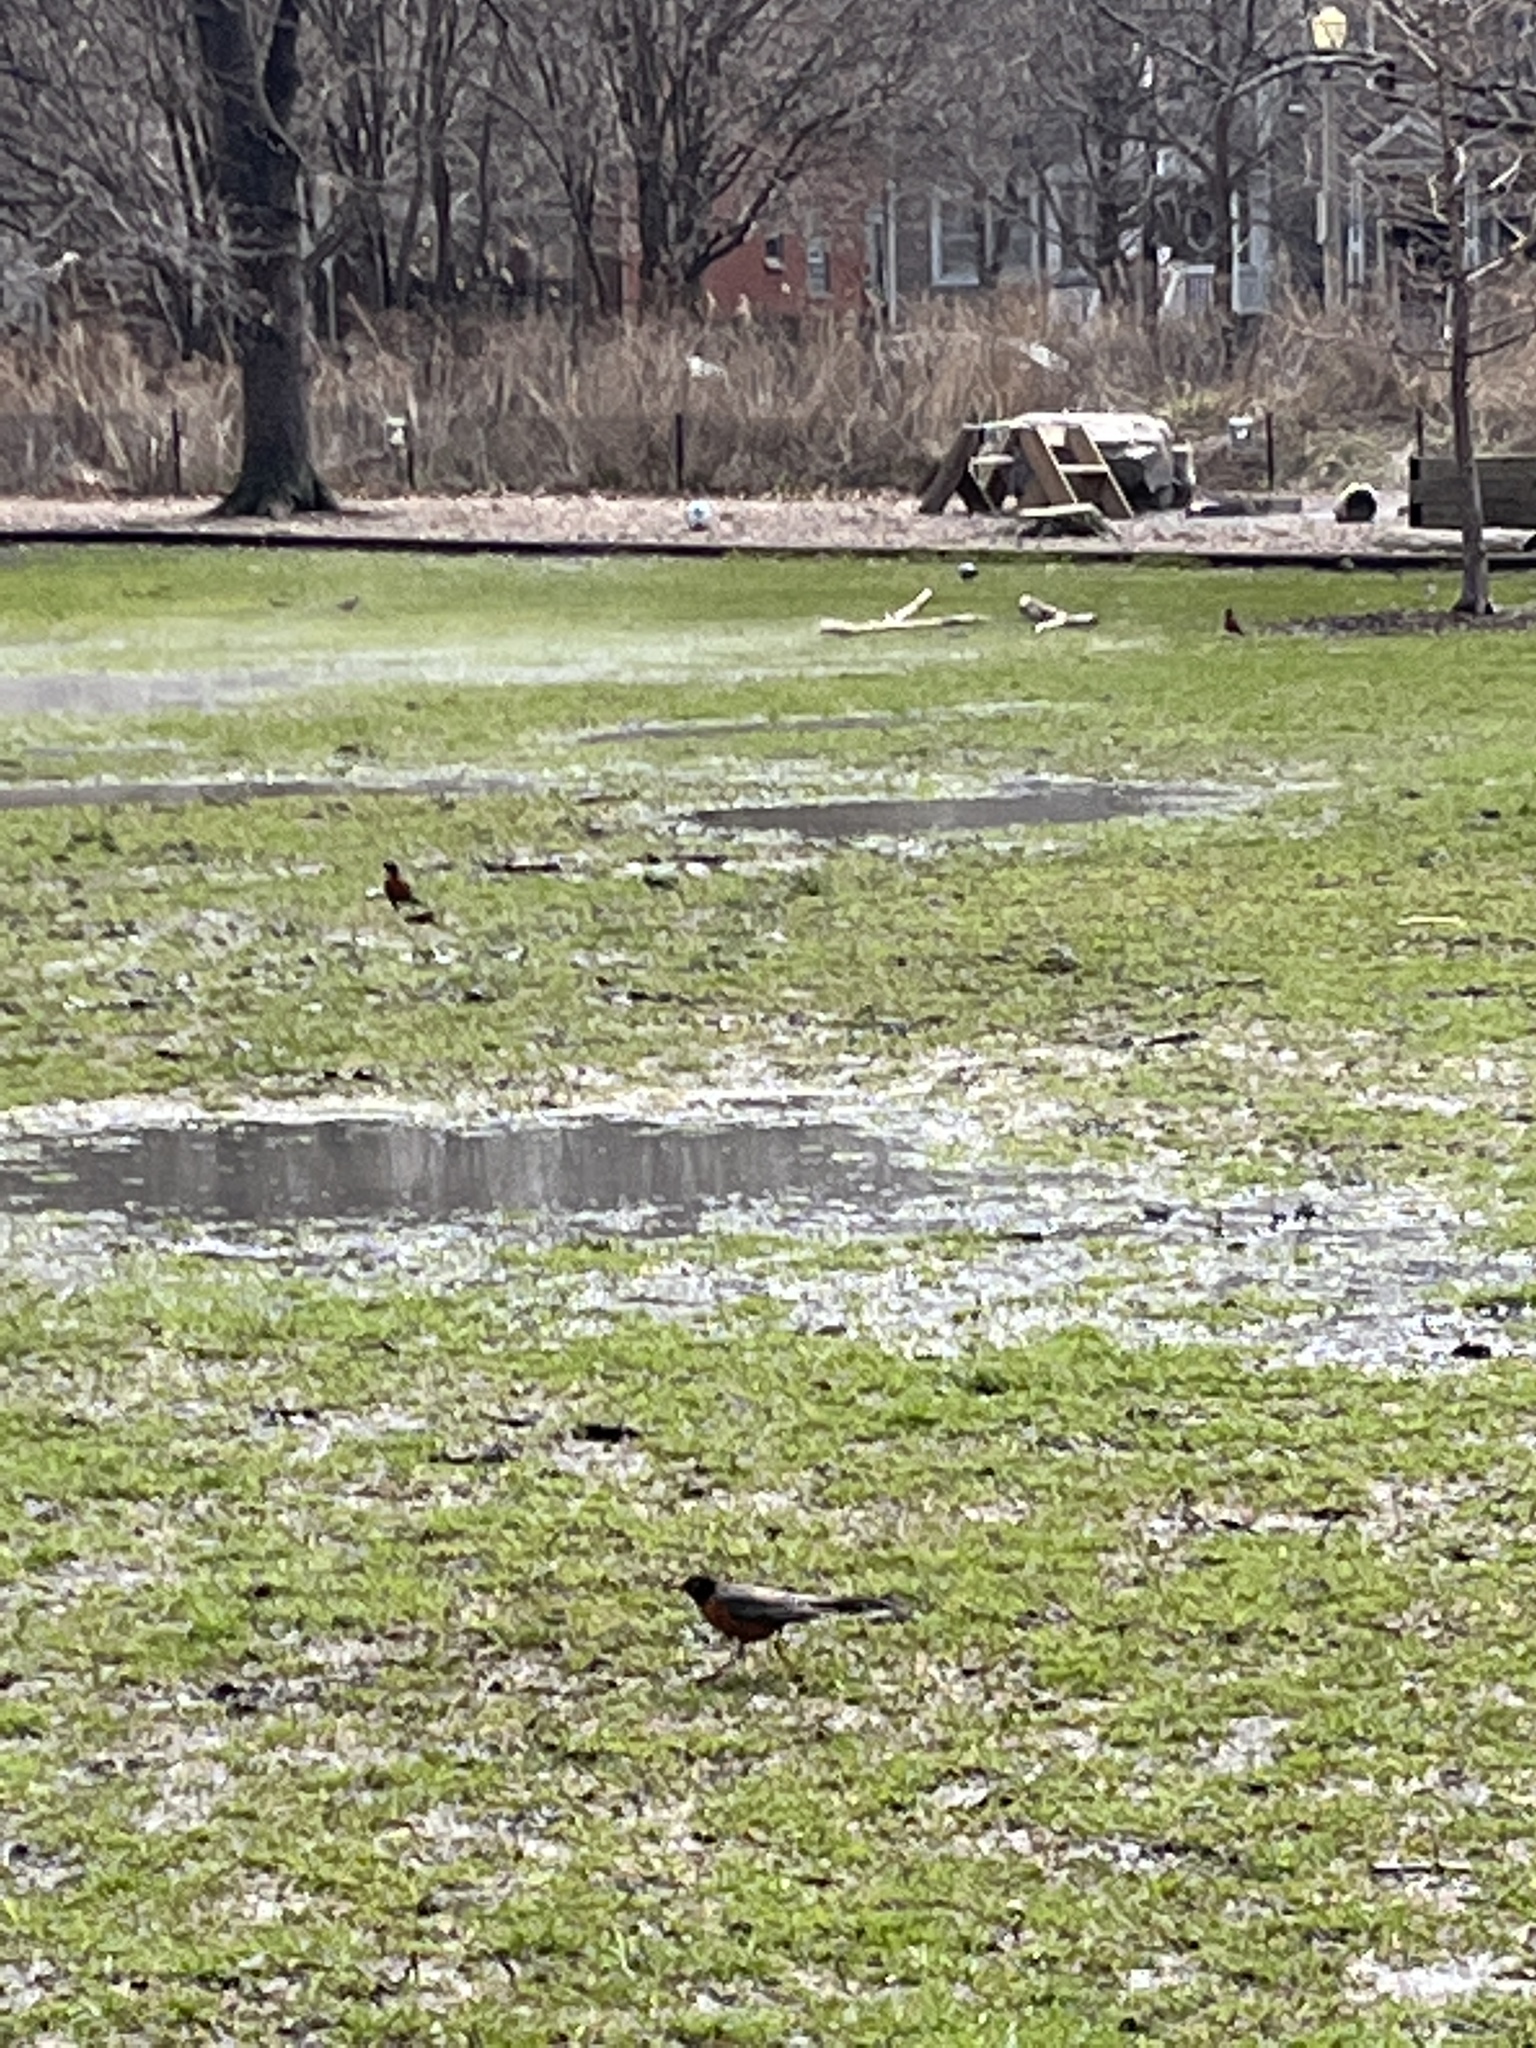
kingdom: Animalia
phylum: Chordata
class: Aves
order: Passeriformes
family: Turdidae
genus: Turdus
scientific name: Turdus migratorius
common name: American robin
